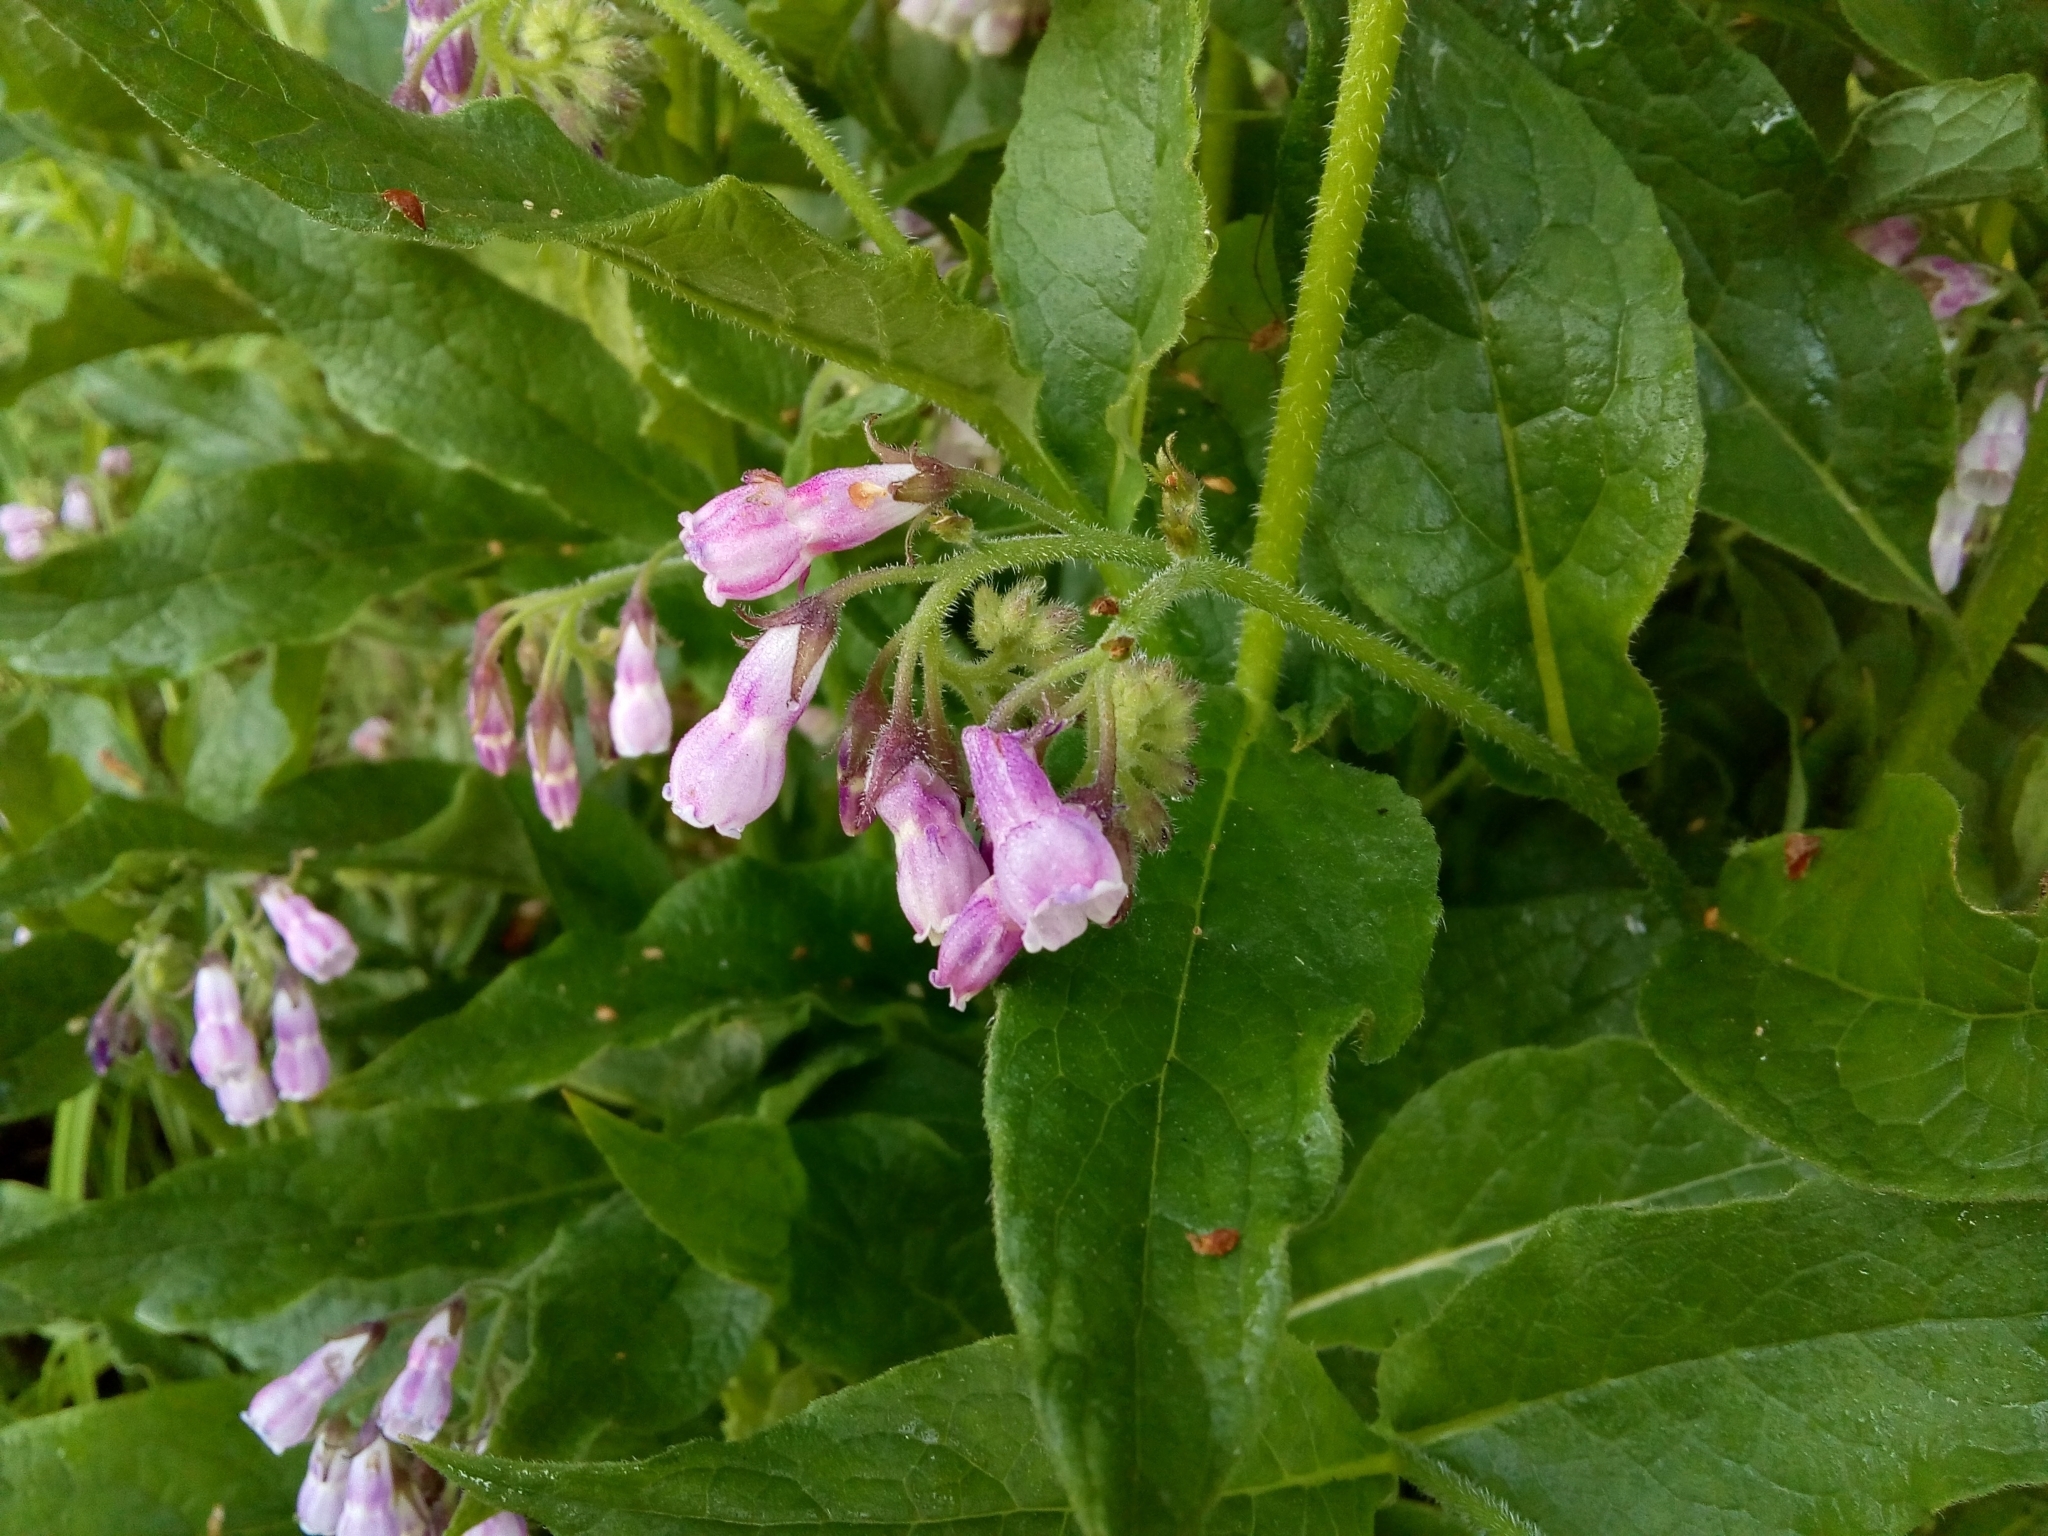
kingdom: Plantae
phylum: Tracheophyta
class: Magnoliopsida
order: Boraginales
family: Boraginaceae
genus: Symphytum
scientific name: Symphytum officinale
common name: Common comfrey
